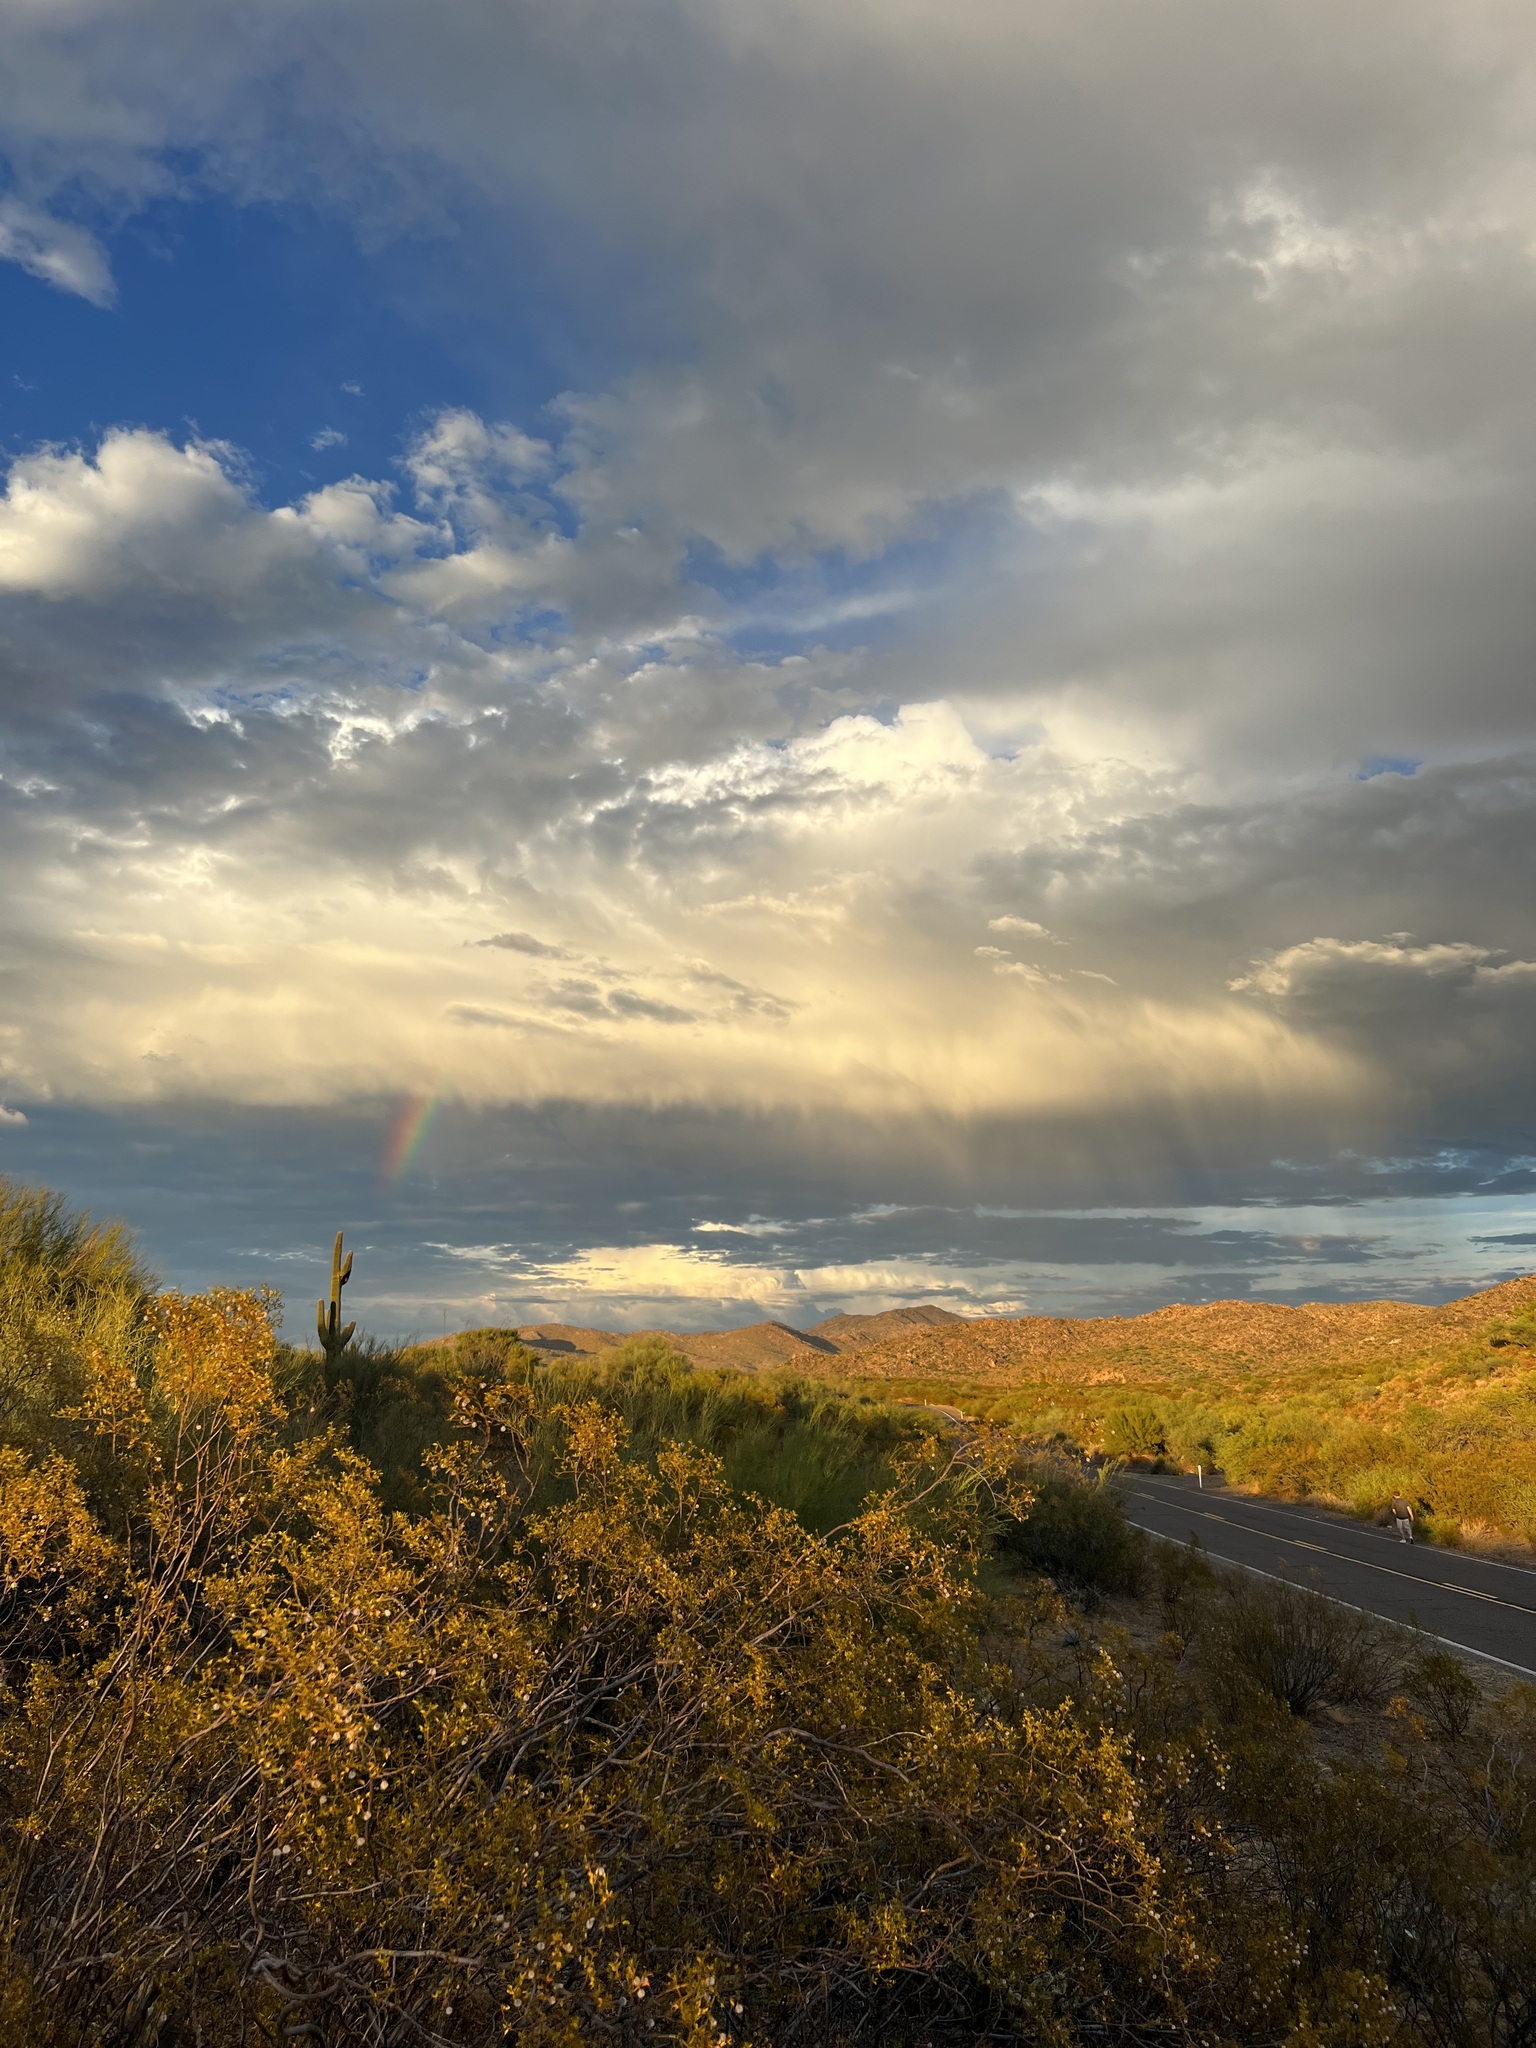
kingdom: Plantae
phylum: Tracheophyta
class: Magnoliopsida
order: Zygophyllales
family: Zygophyllaceae
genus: Larrea
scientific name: Larrea tridentata
